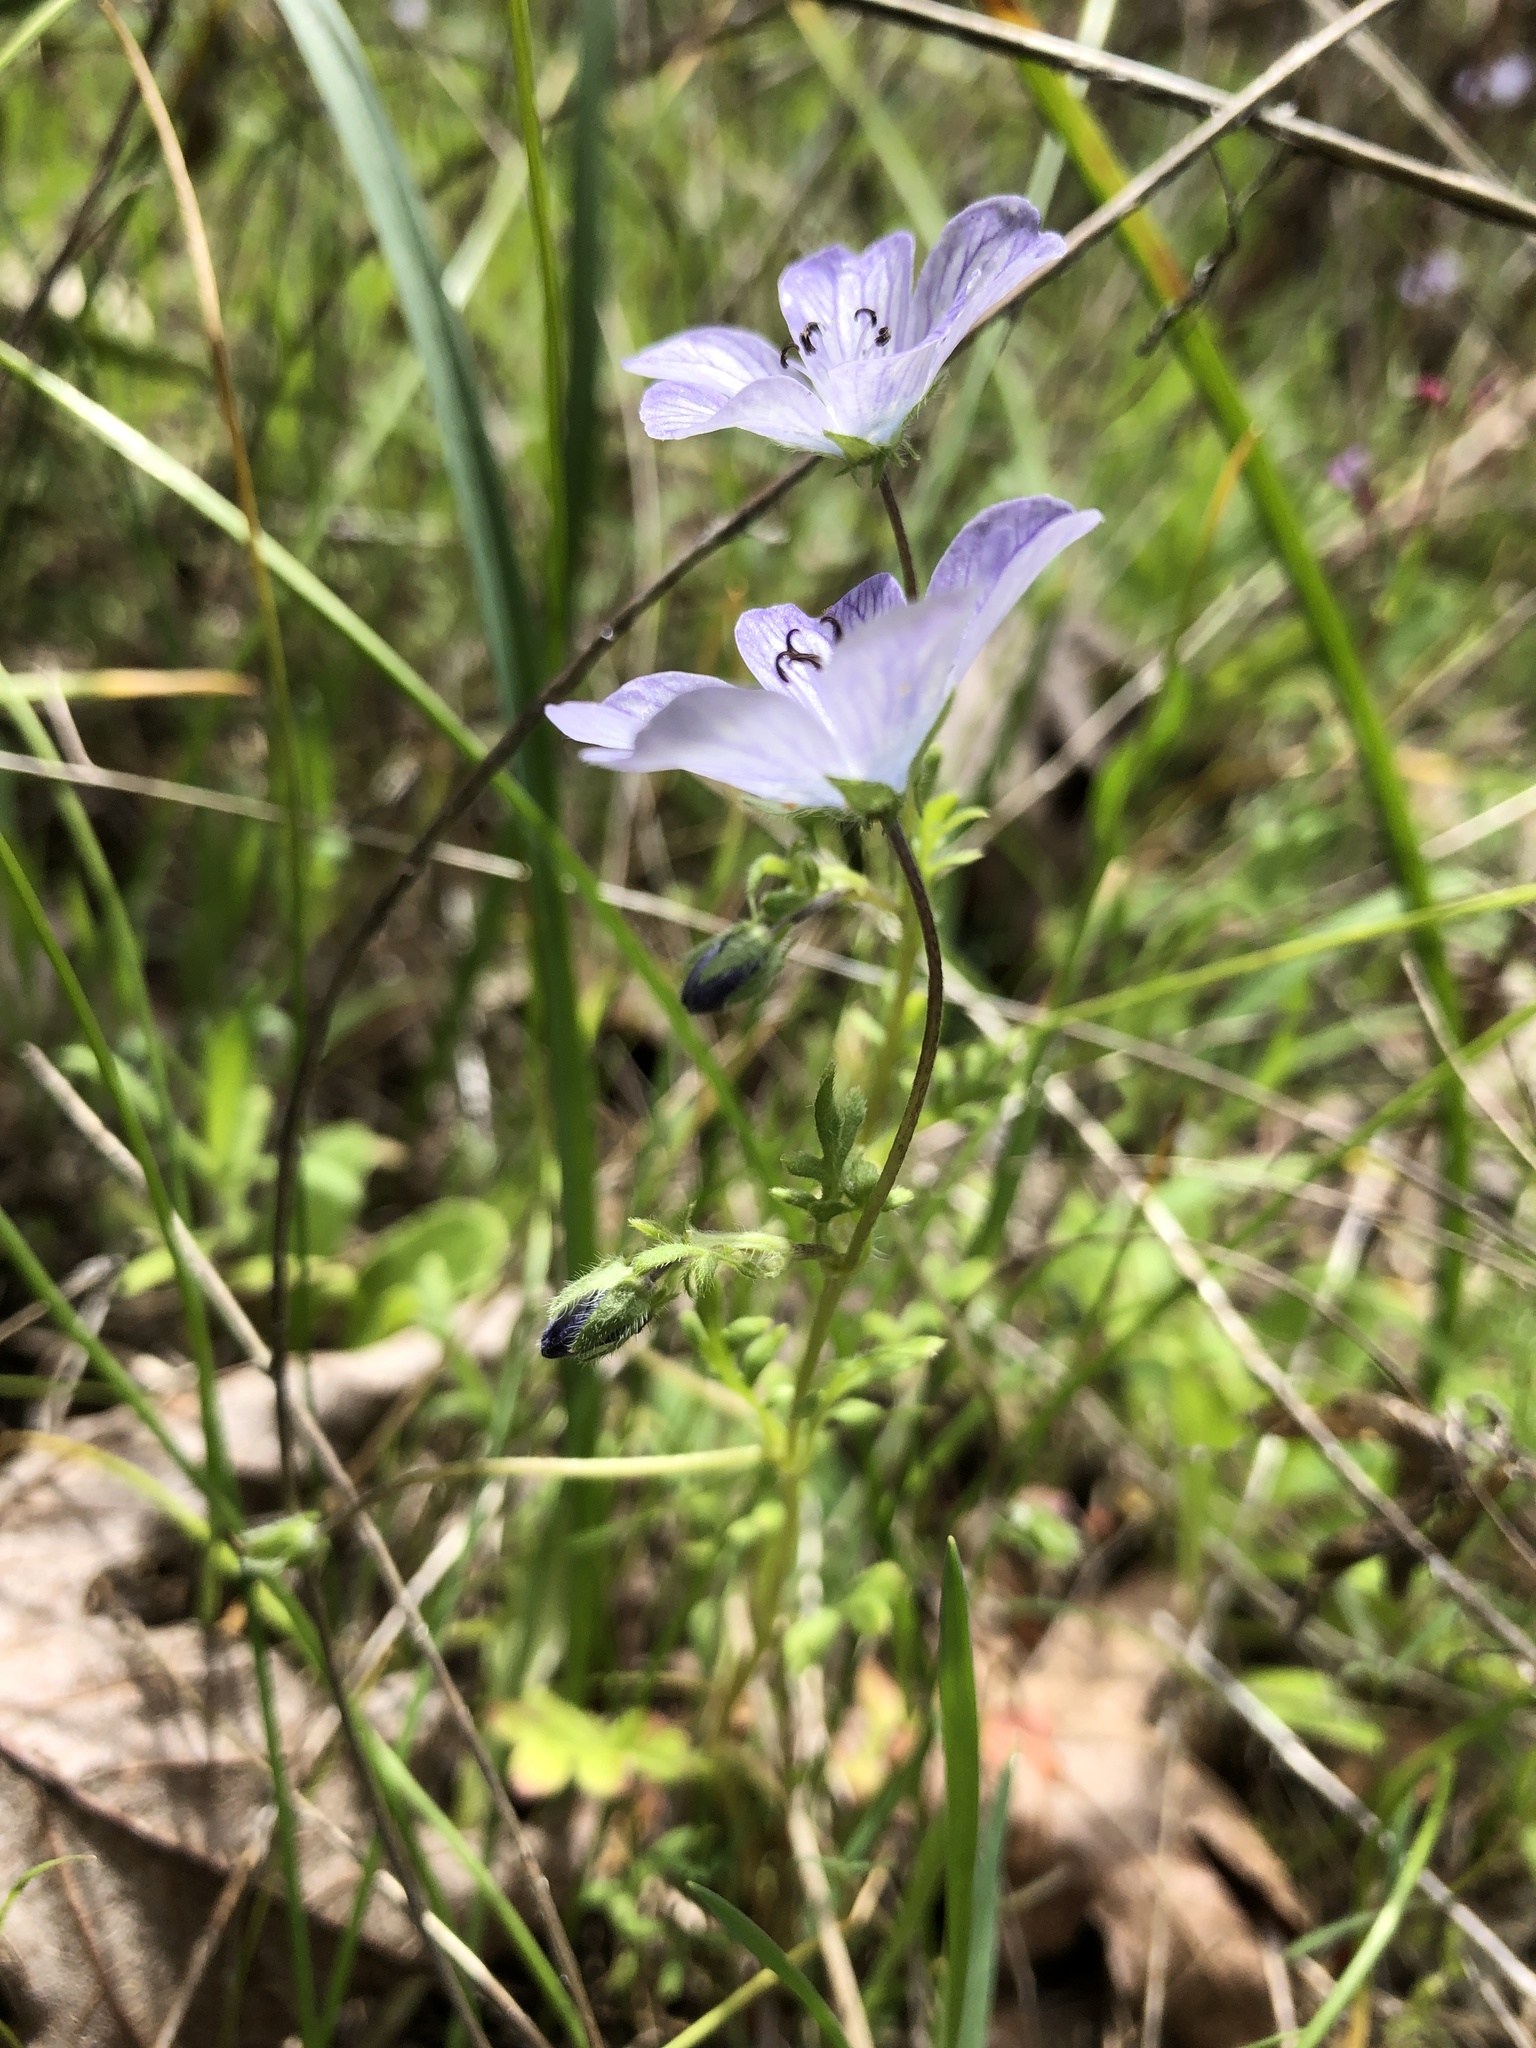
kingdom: Plantae
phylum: Tracheophyta
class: Magnoliopsida
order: Boraginales
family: Hydrophyllaceae
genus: Nemophila
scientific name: Nemophila menziesii
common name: Baby's-blue-eyes
